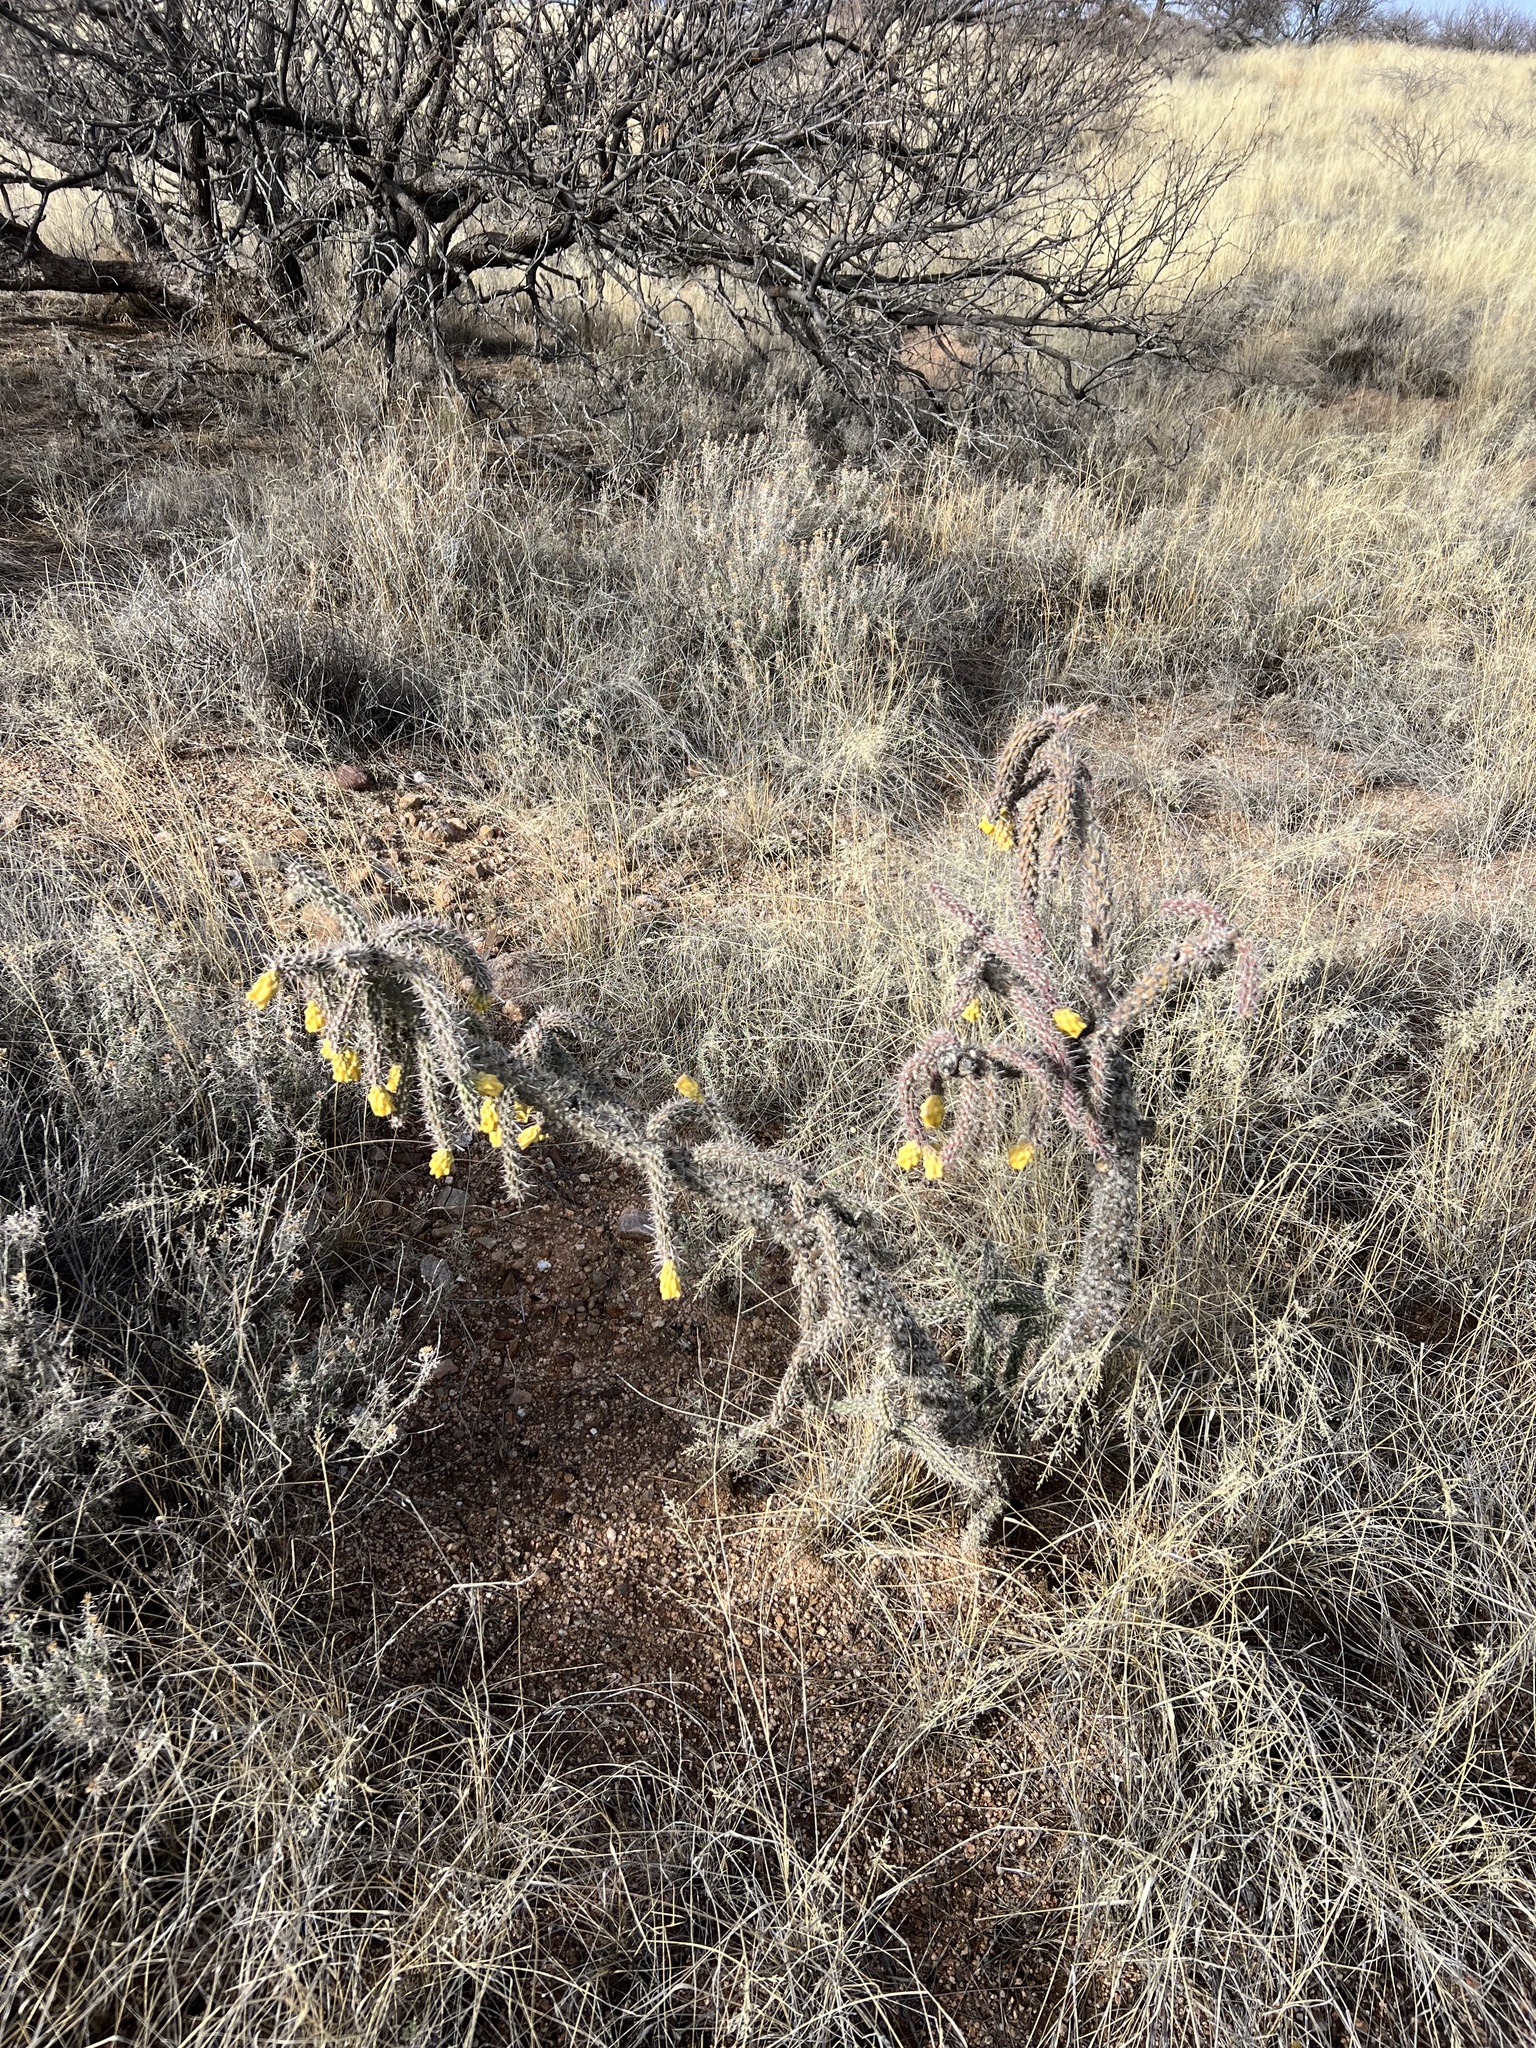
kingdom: Plantae
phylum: Tracheophyta
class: Magnoliopsida
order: Caryophyllales
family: Cactaceae
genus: Cylindropuntia
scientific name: Cylindropuntia imbricata
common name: Candelabrum cactus
